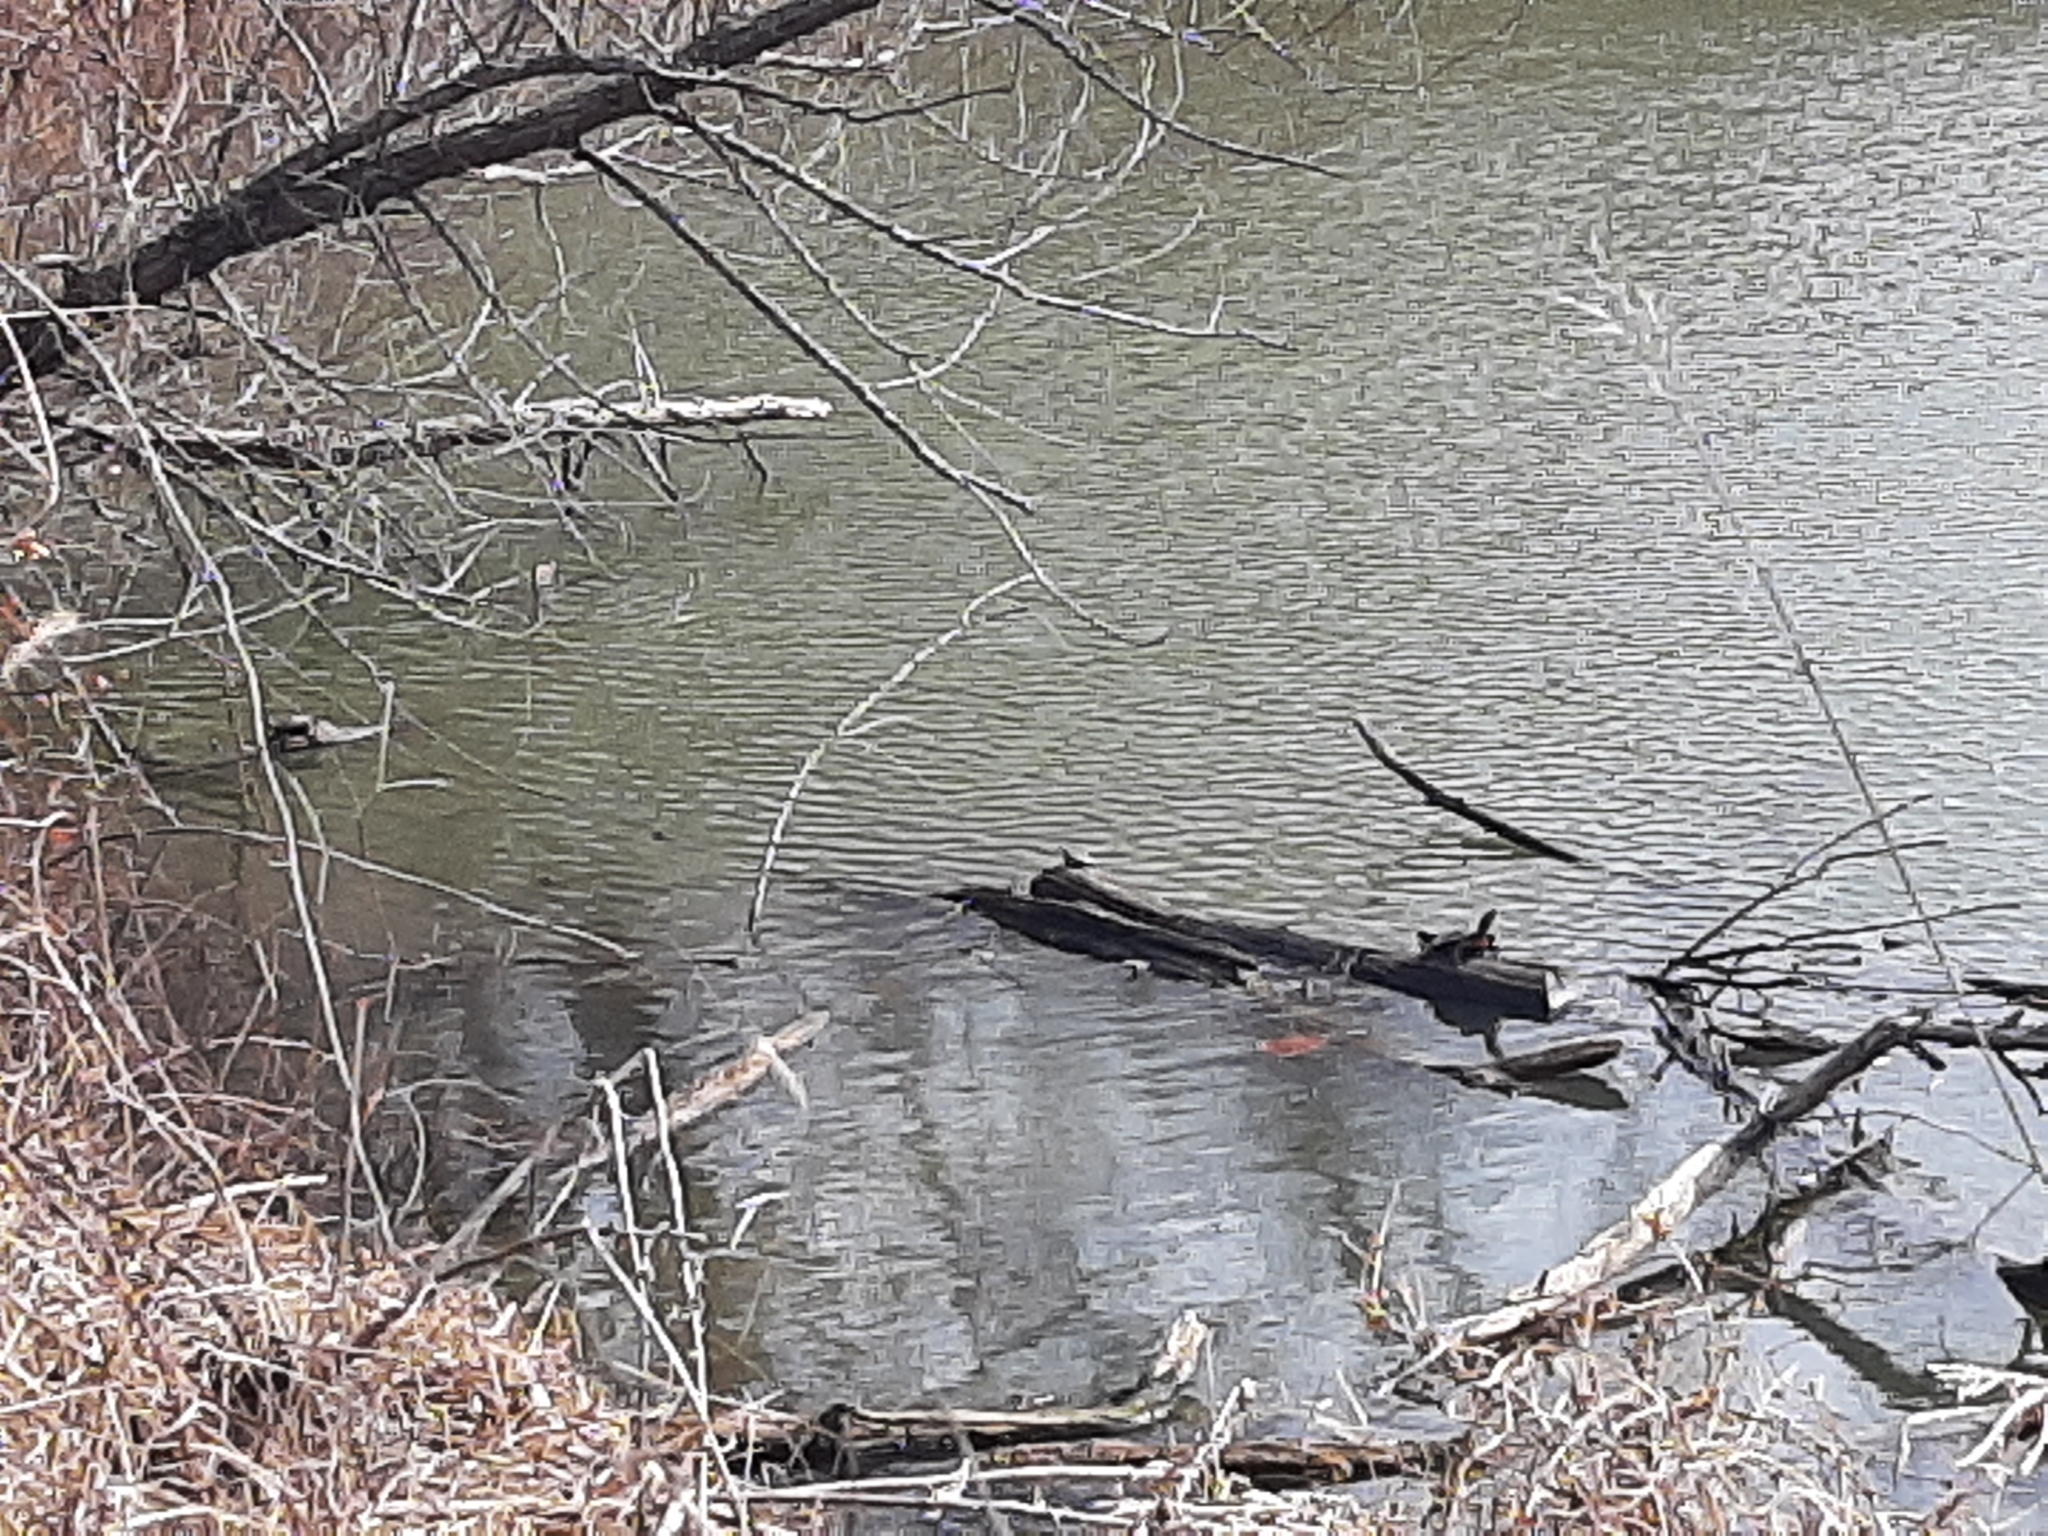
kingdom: Animalia
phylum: Chordata
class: Testudines
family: Emydidae
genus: Chrysemys
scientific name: Chrysemys picta
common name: Painted turtle
